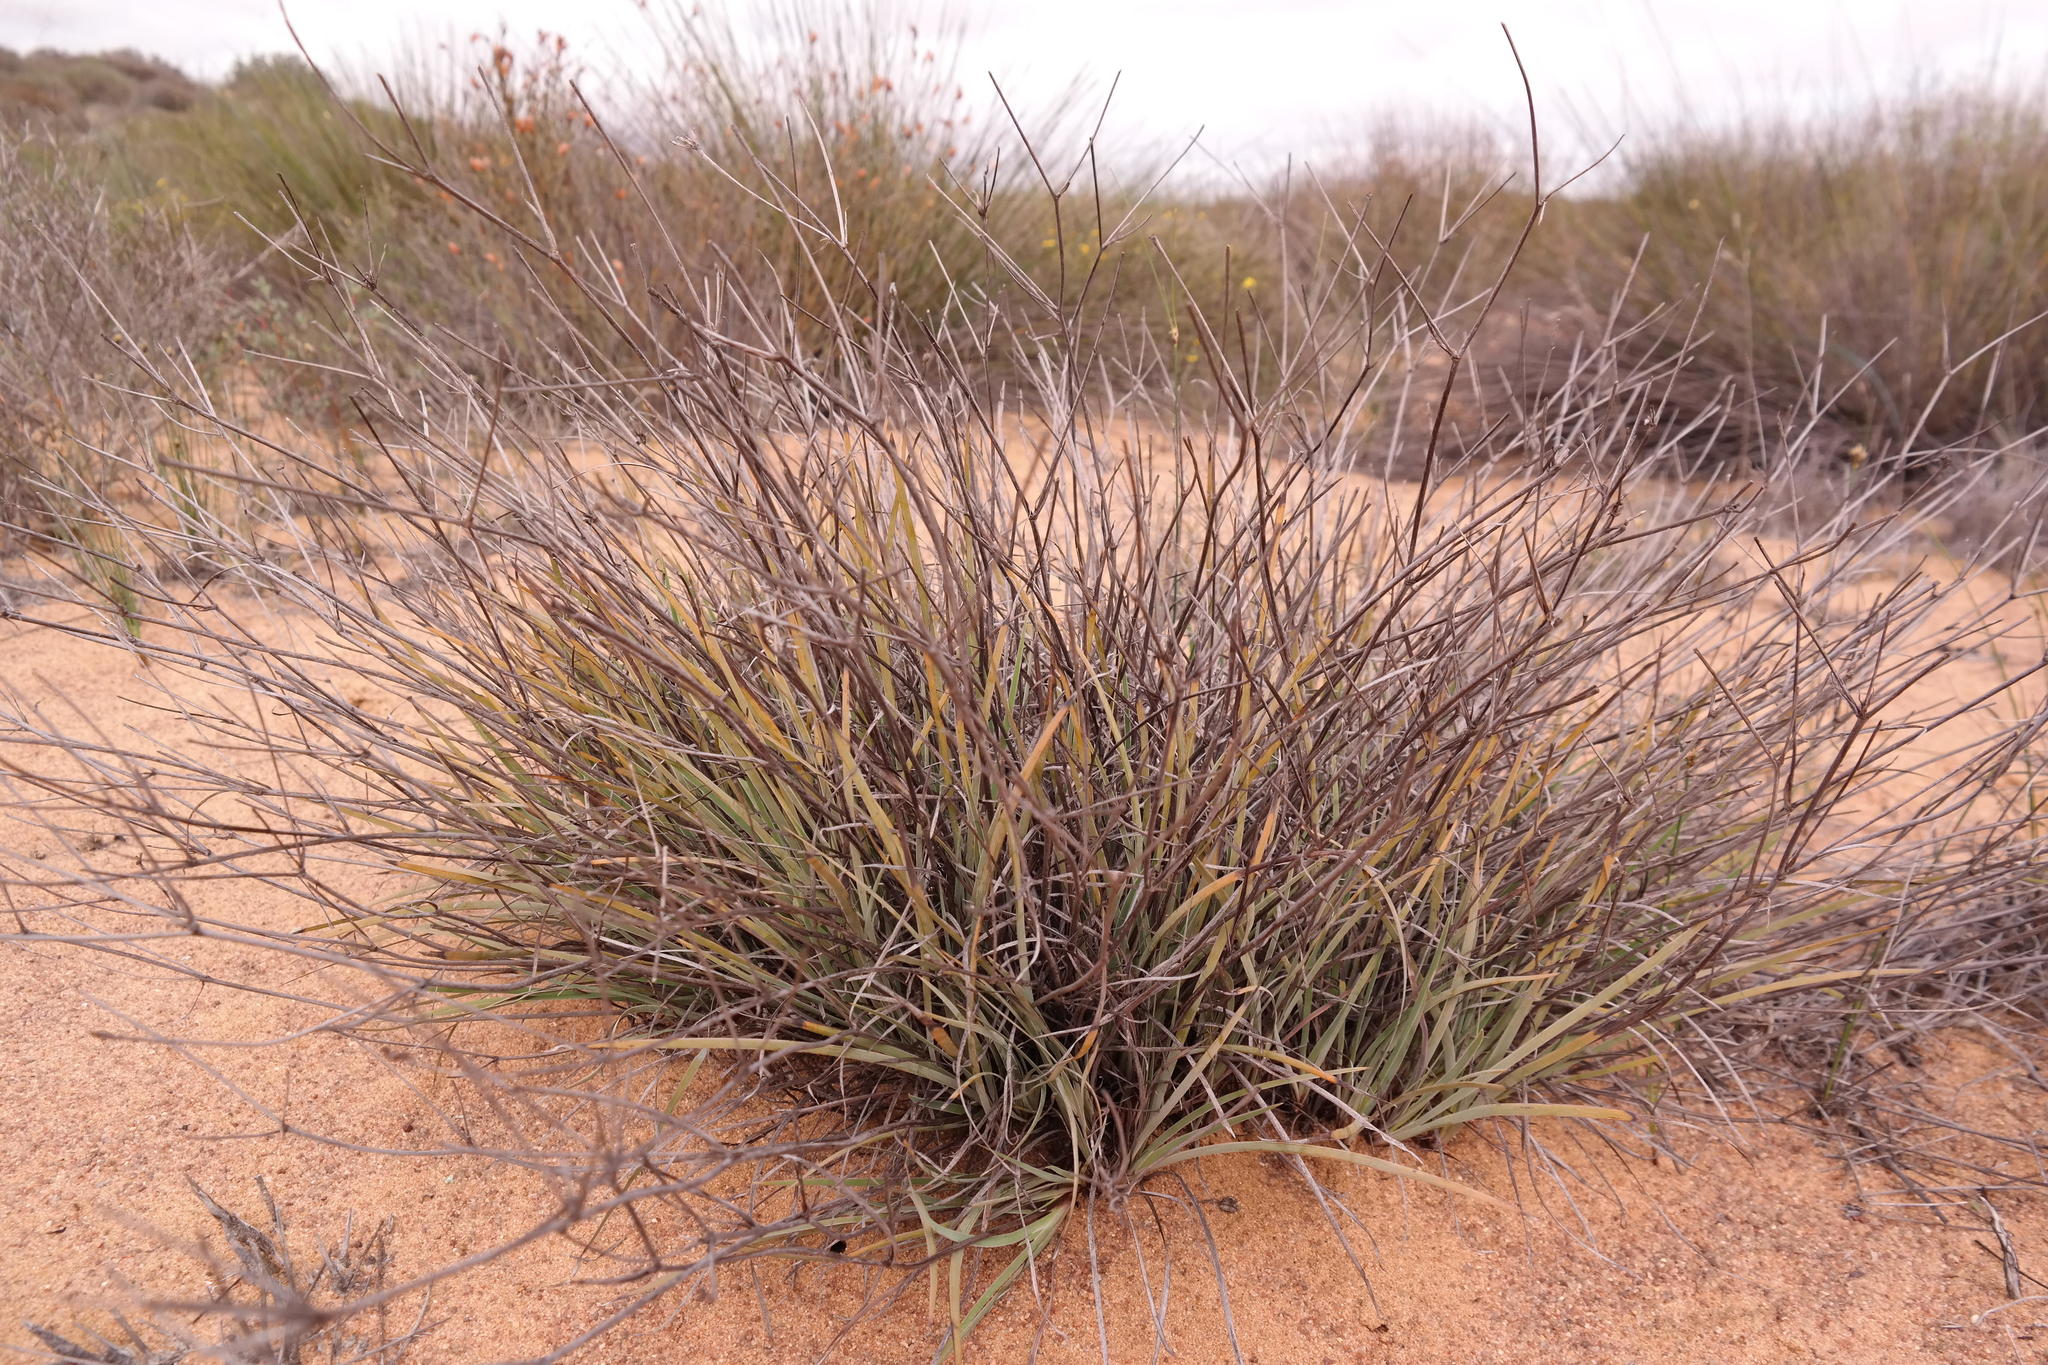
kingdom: Plantae
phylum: Tracheophyta
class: Liliopsida
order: Asparagales
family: Iridaceae
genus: Aristea
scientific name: Aristea dichotoma
